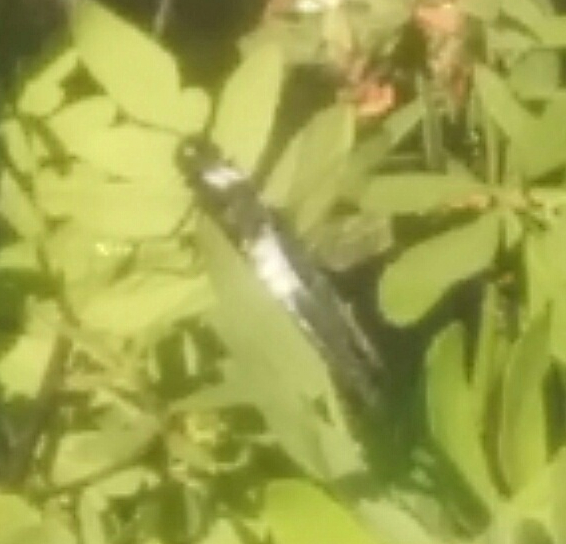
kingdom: Animalia
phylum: Arthropoda
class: Insecta
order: Odonata
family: Libellulidae
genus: Ladona
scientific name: Ladona julia
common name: Chalk-fronted corporal
